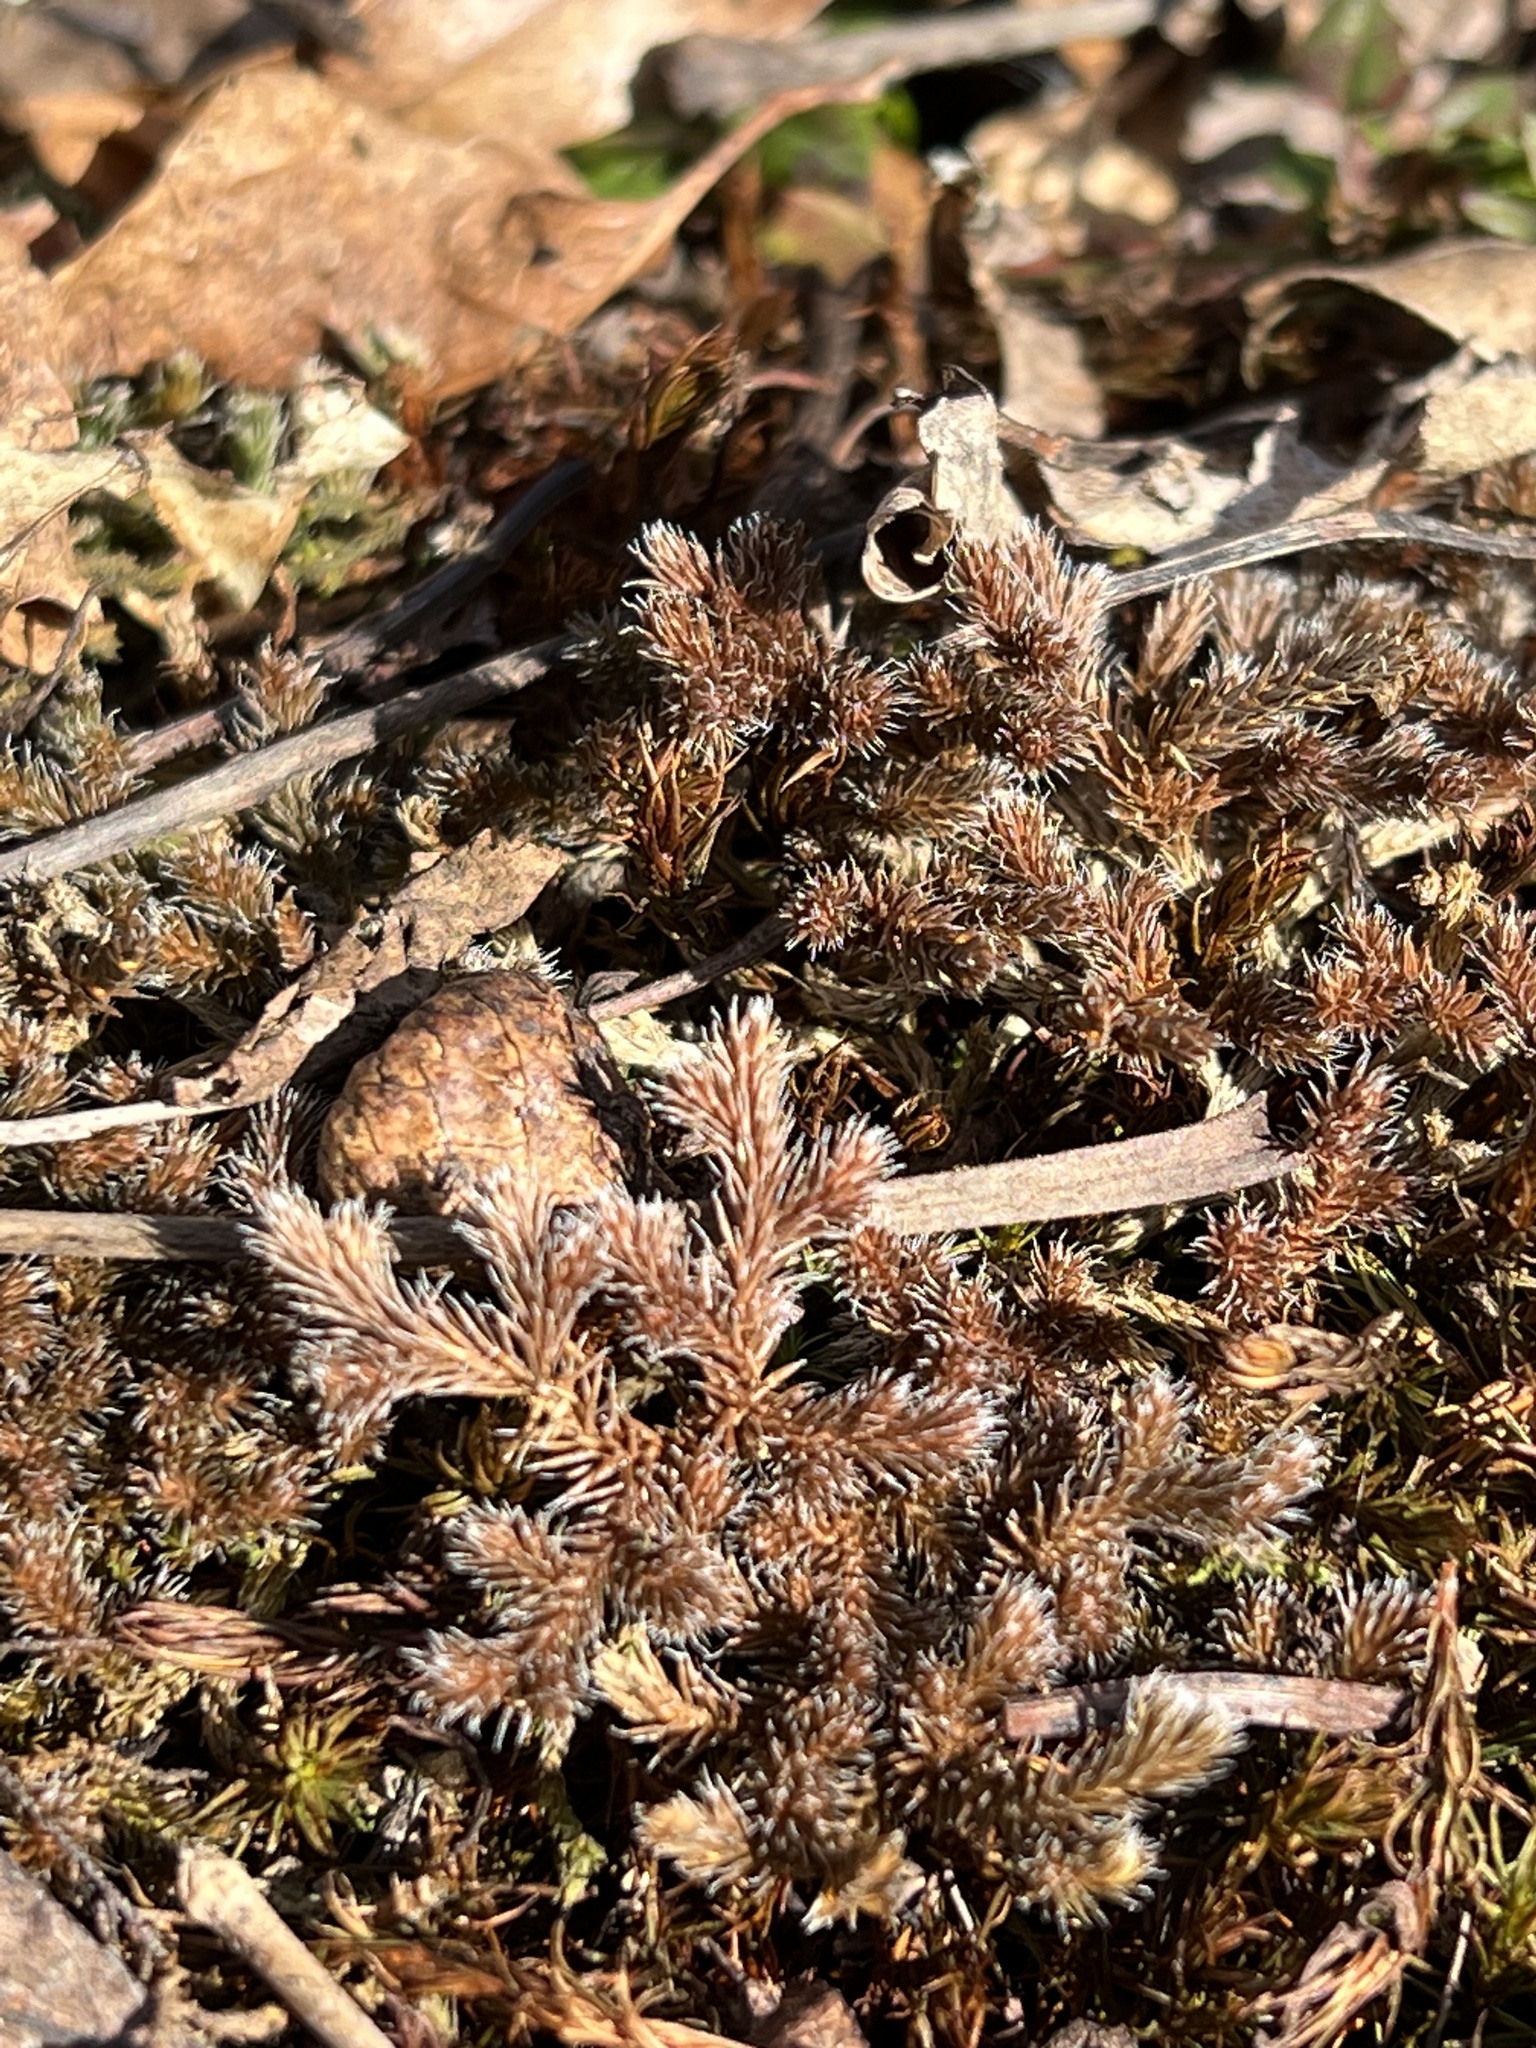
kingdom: Plantae
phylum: Tracheophyta
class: Lycopodiopsida
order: Selaginellales
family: Selaginellaceae
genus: Selaginella
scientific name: Selaginella rupestris
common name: Dwarf spikemoss
